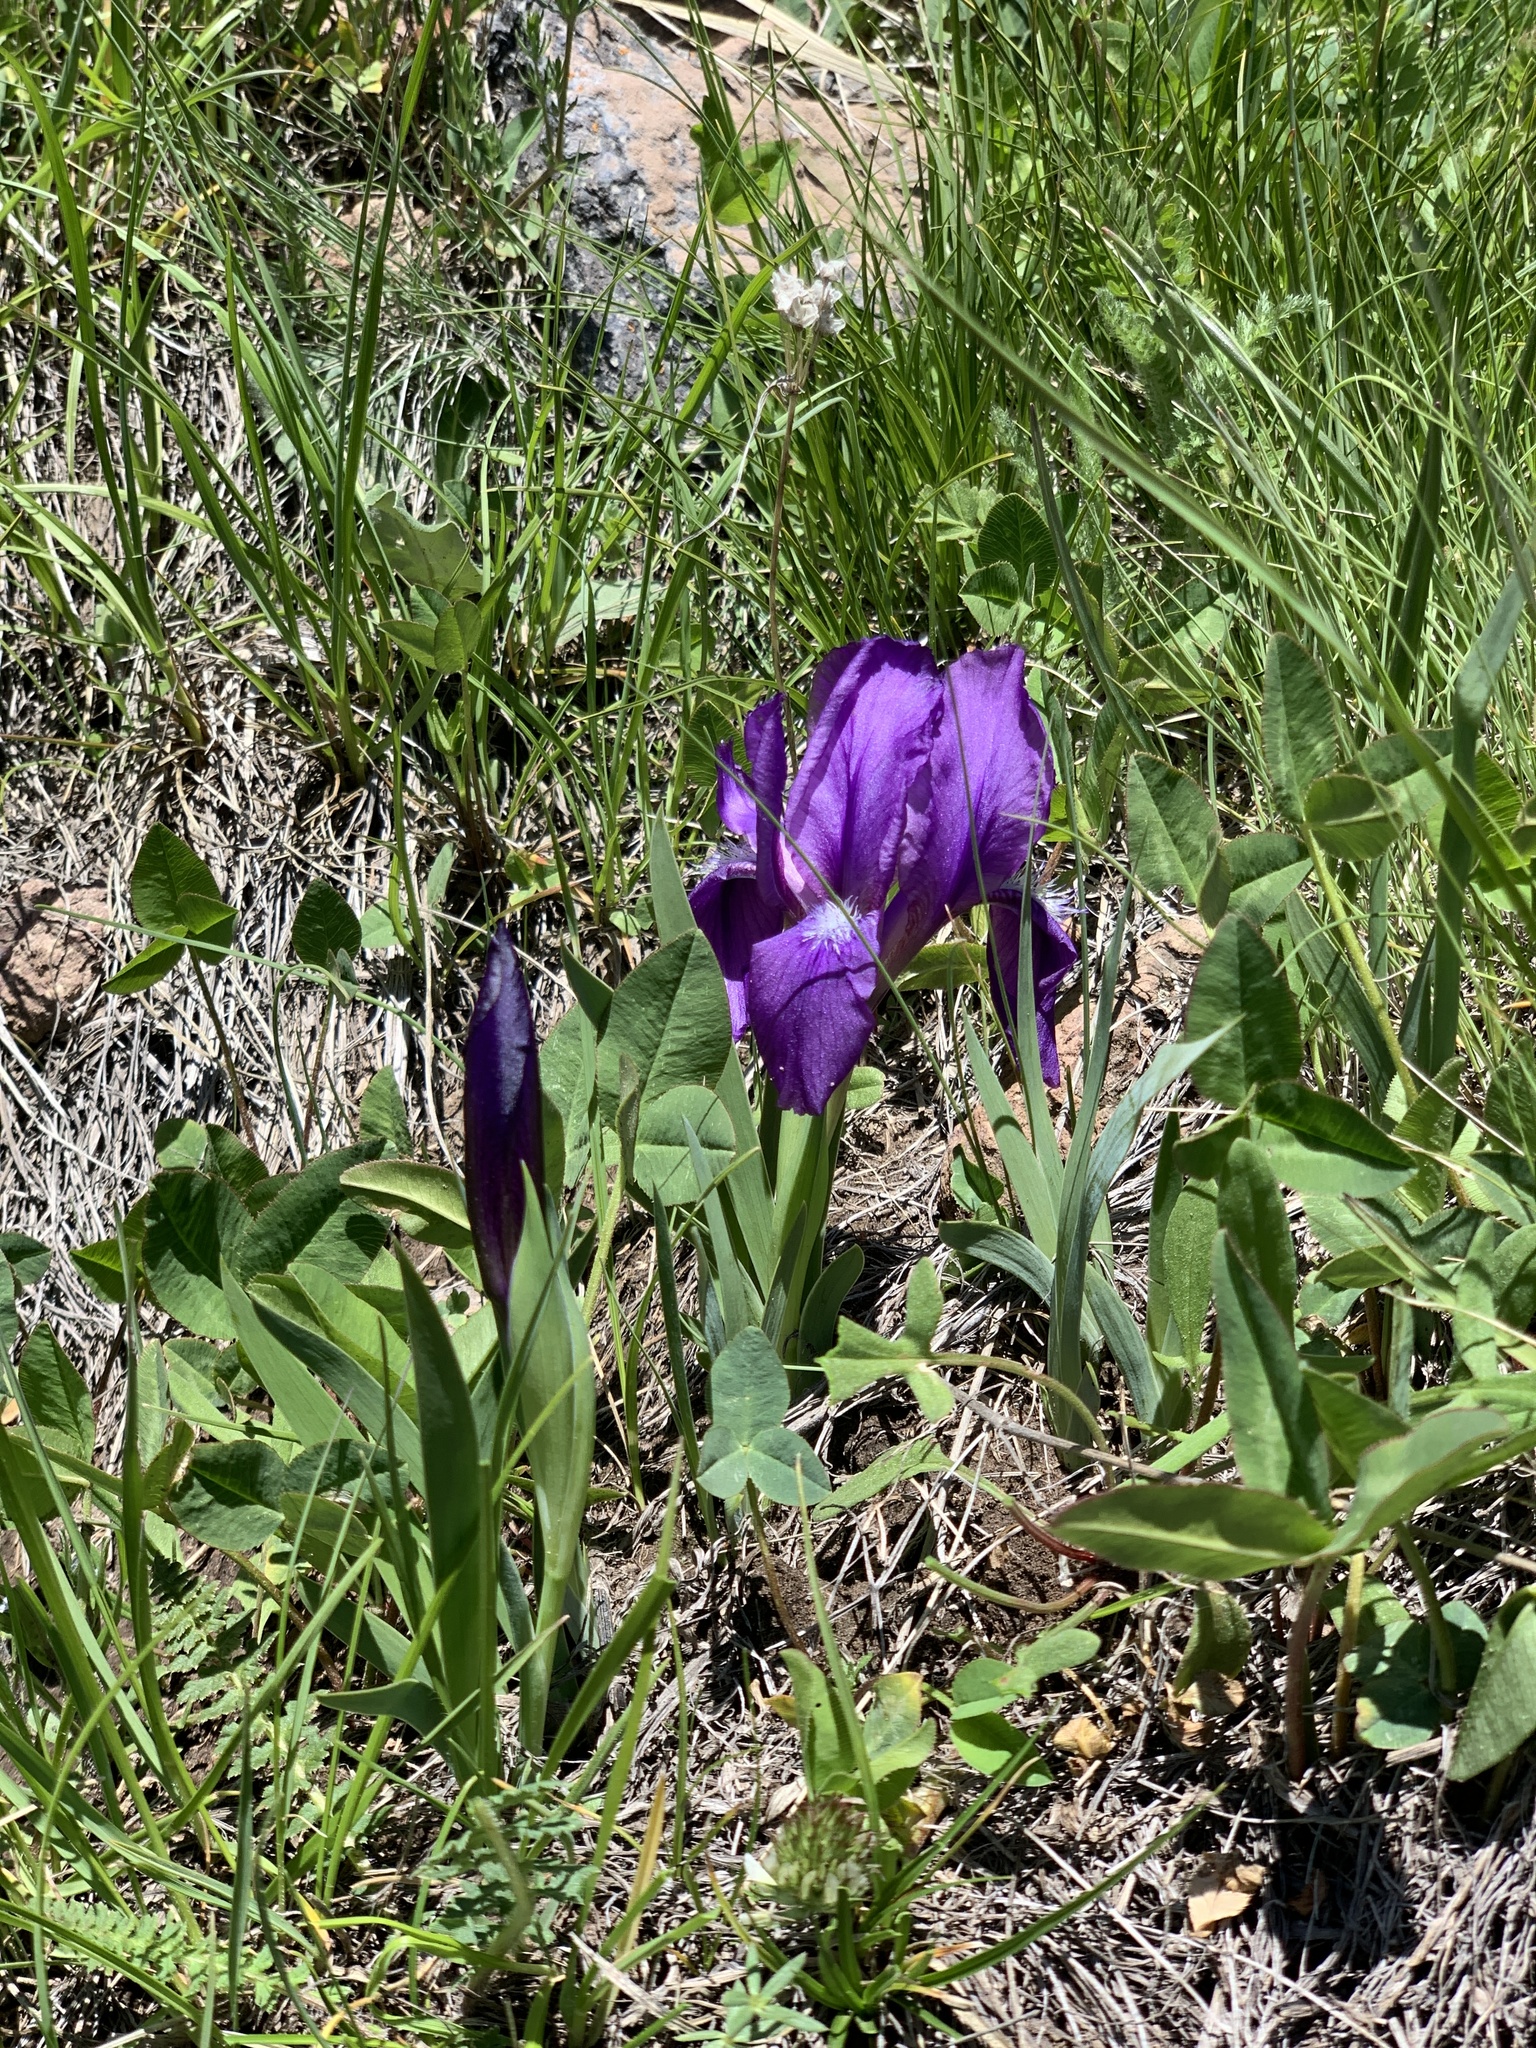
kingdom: Plantae
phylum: Tracheophyta
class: Liliopsida
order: Asparagales
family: Iridaceae
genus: Iris
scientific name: Iris furcata
